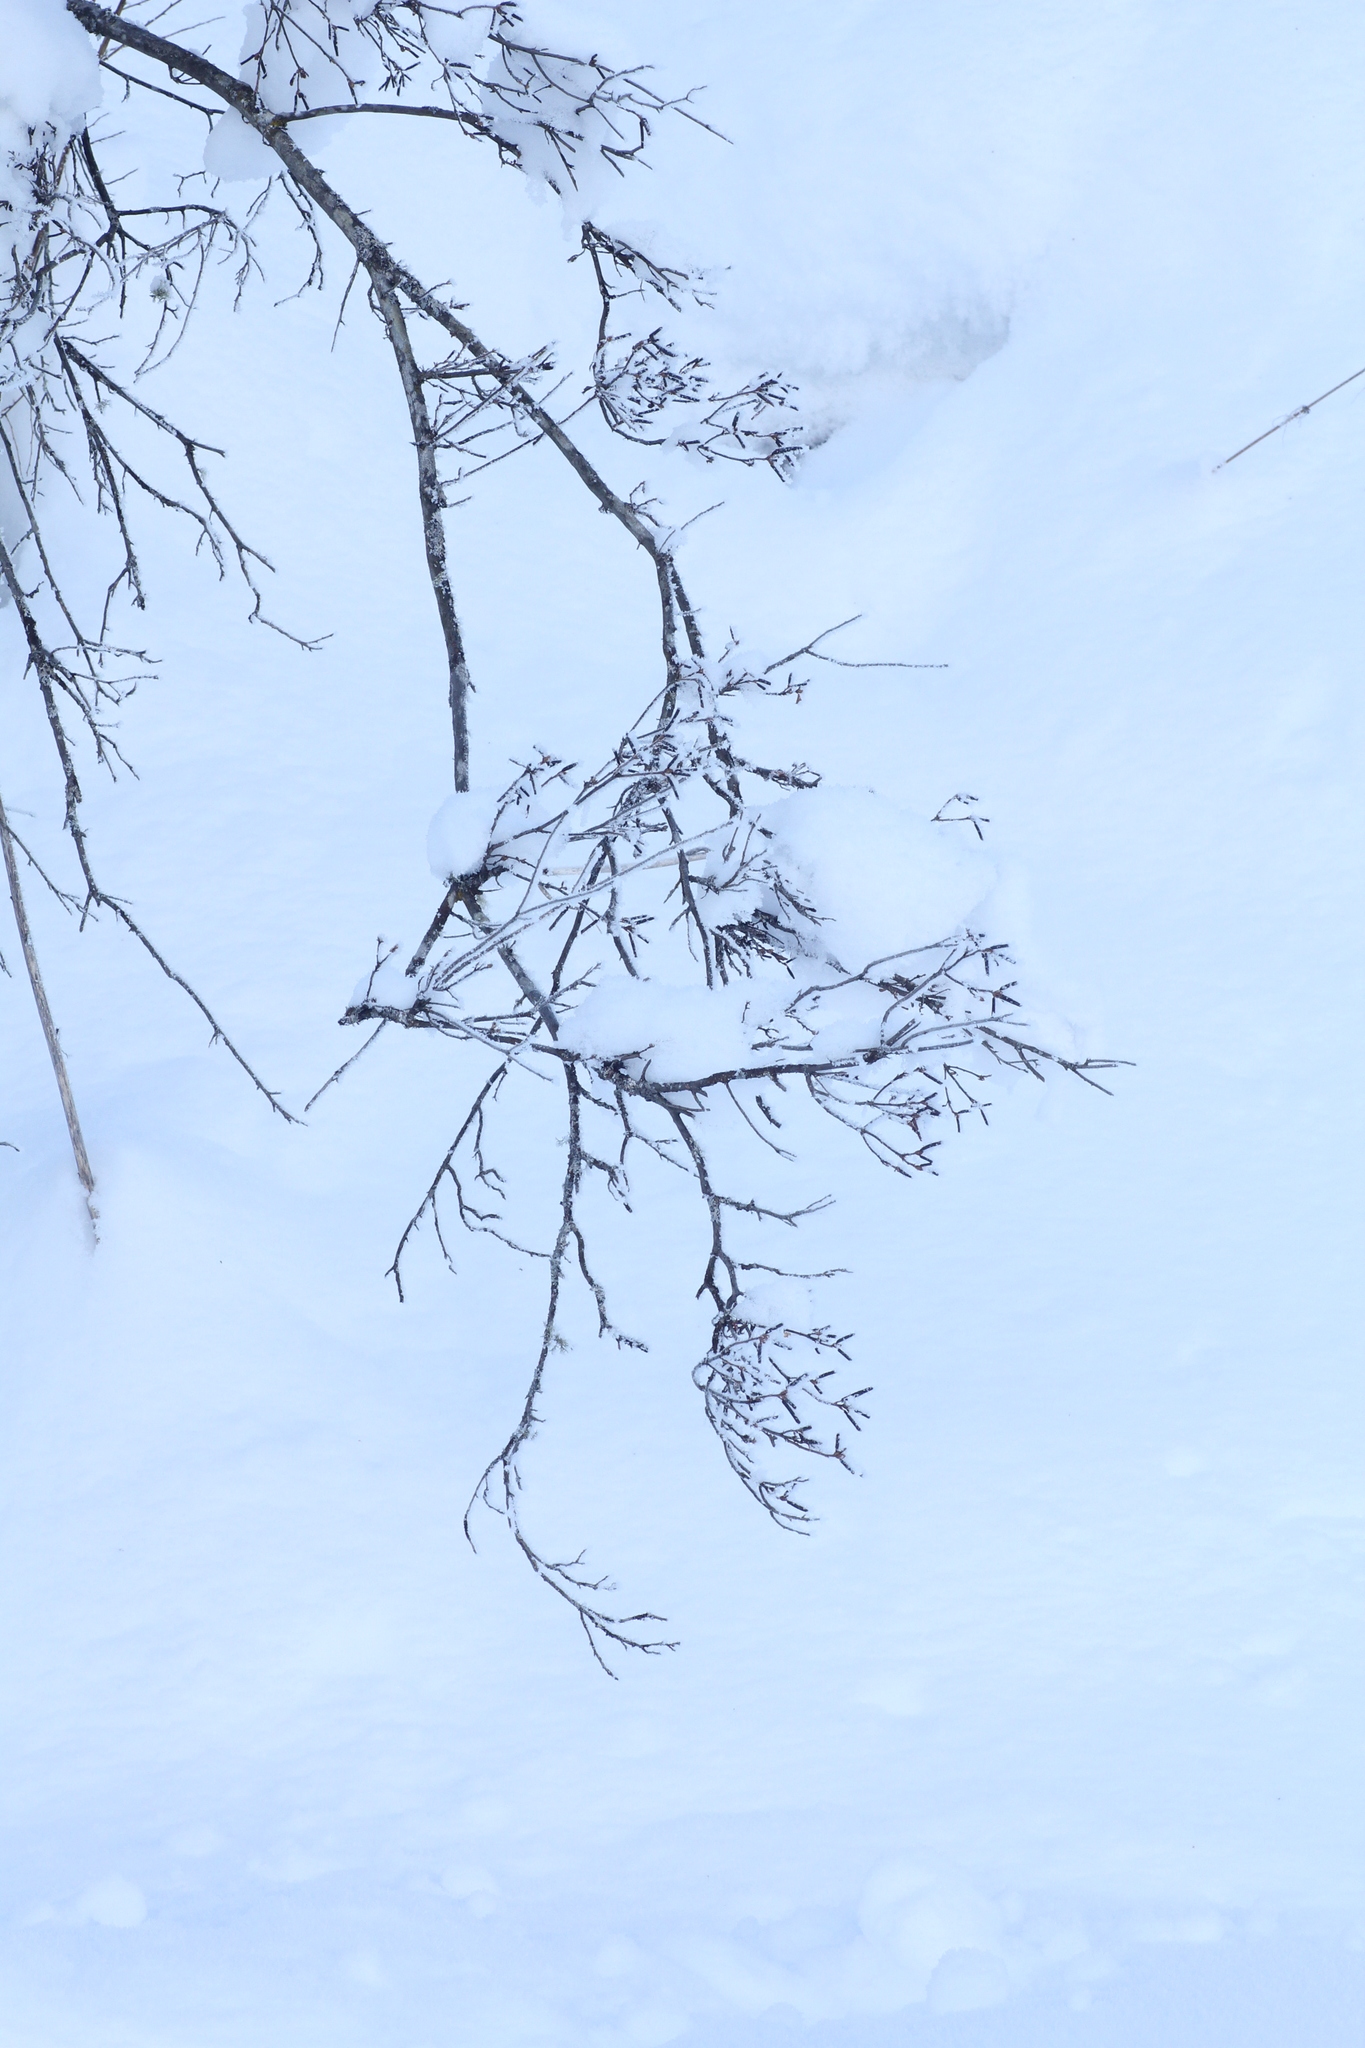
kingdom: Plantae
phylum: Tracheophyta
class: Magnoliopsida
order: Ericales
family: Ericaceae
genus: Rhododendron
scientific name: Rhododendron dauricum
